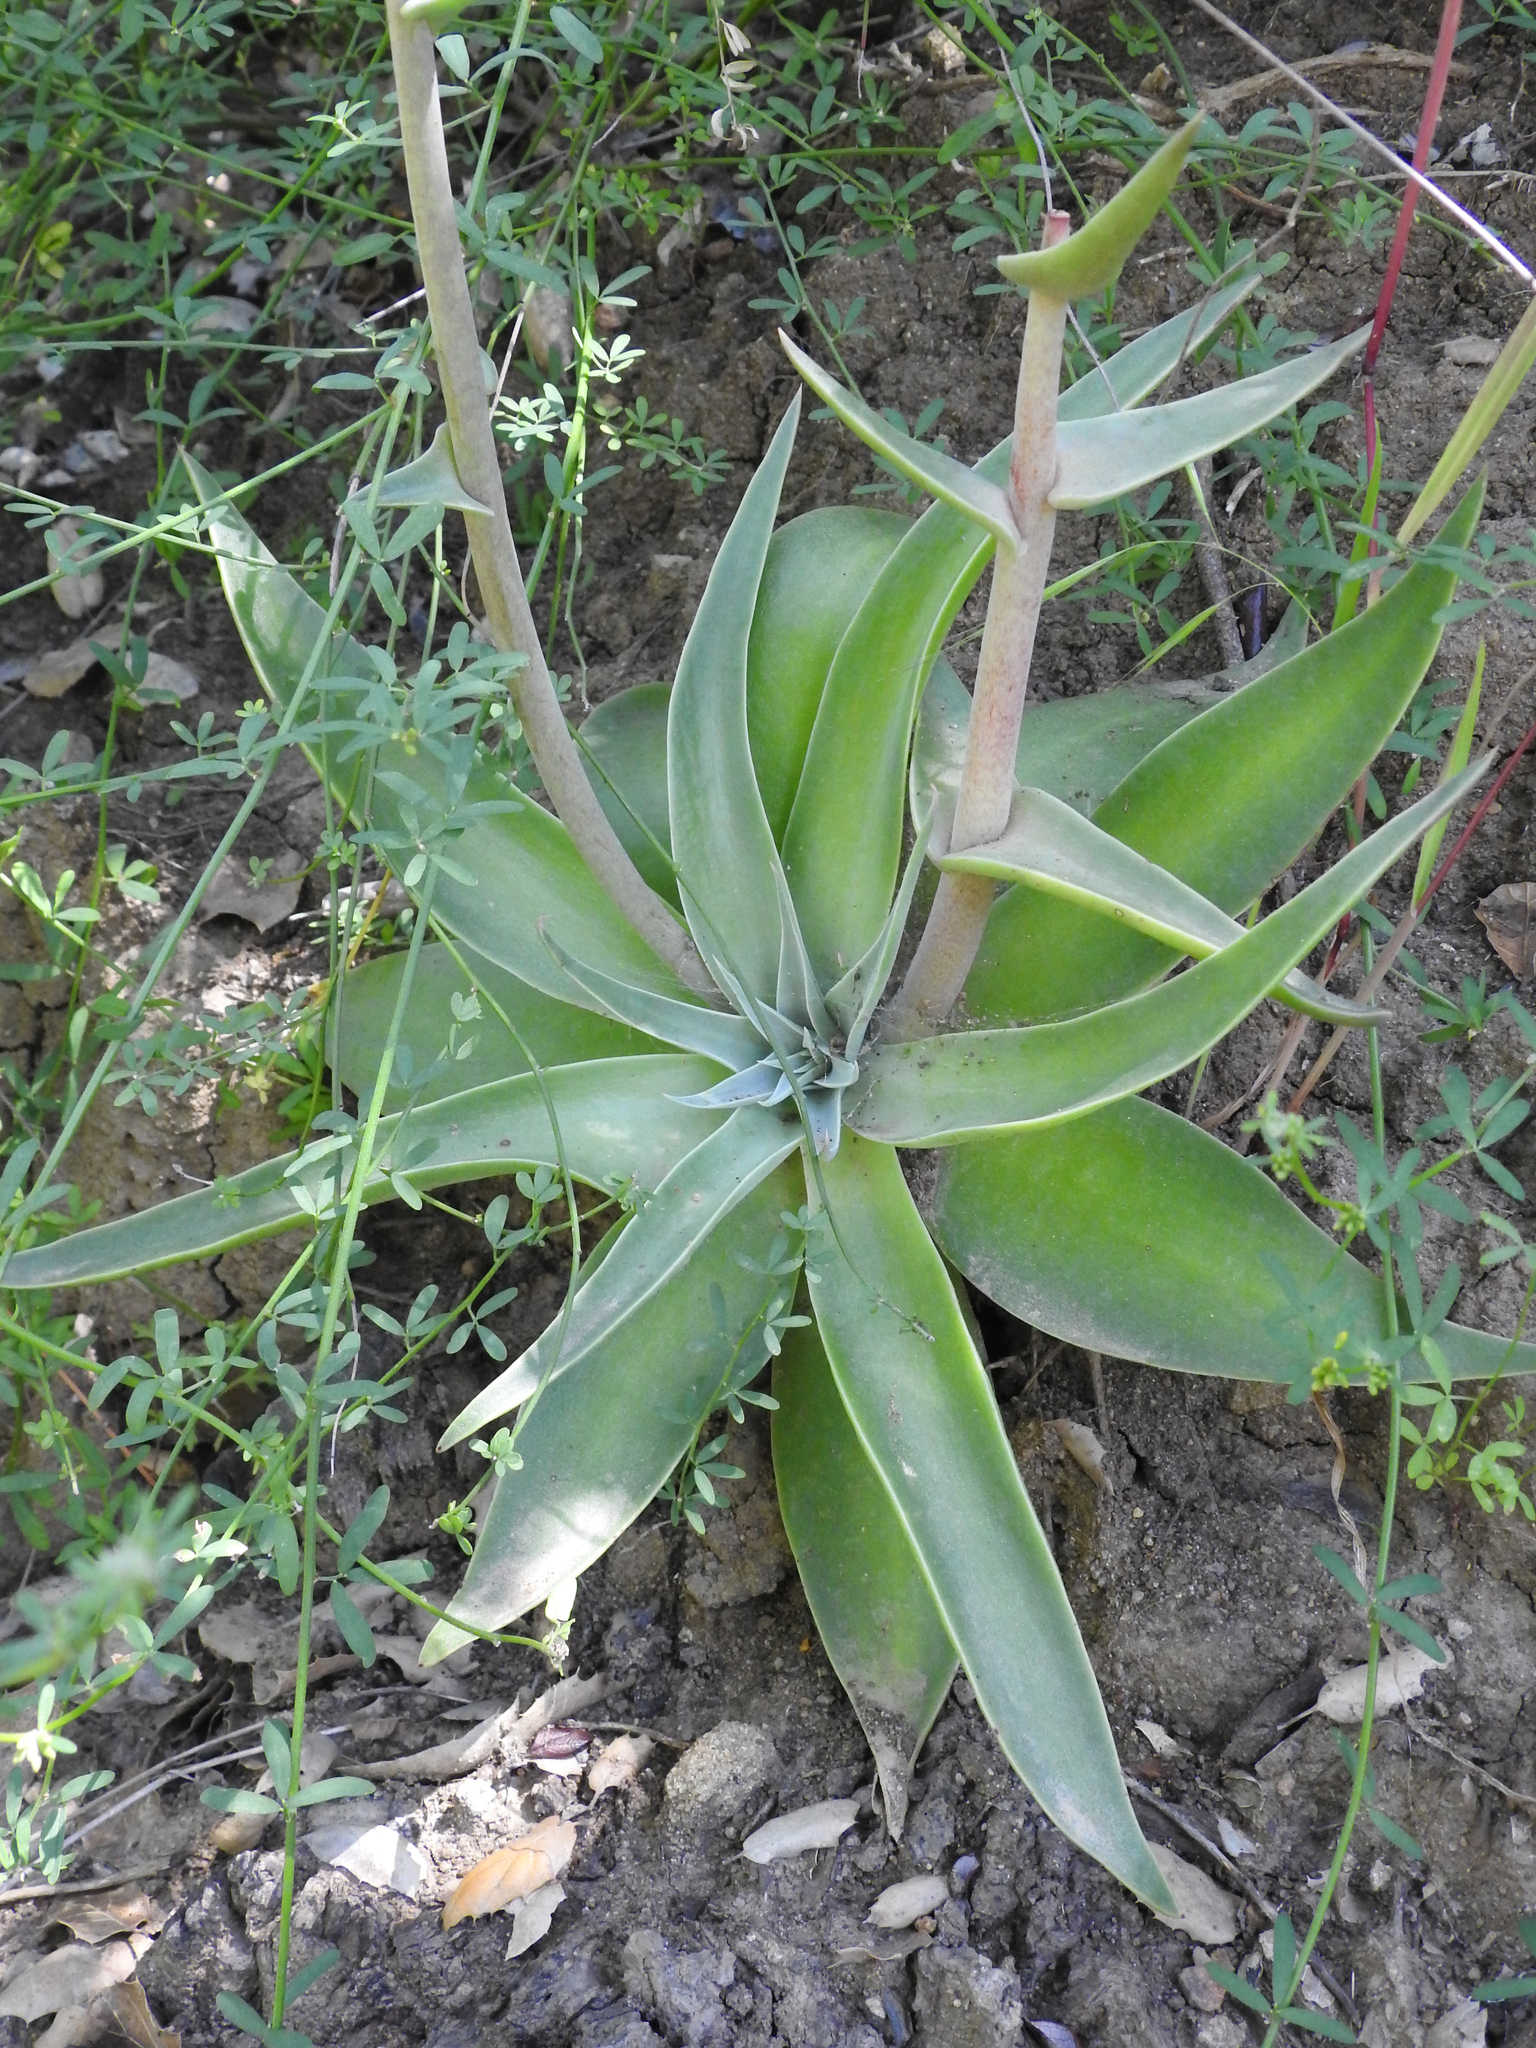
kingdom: Plantae
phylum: Tracheophyta
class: Magnoliopsida
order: Saxifragales
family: Crassulaceae
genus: Dudleya
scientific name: Dudleya lanceolata
